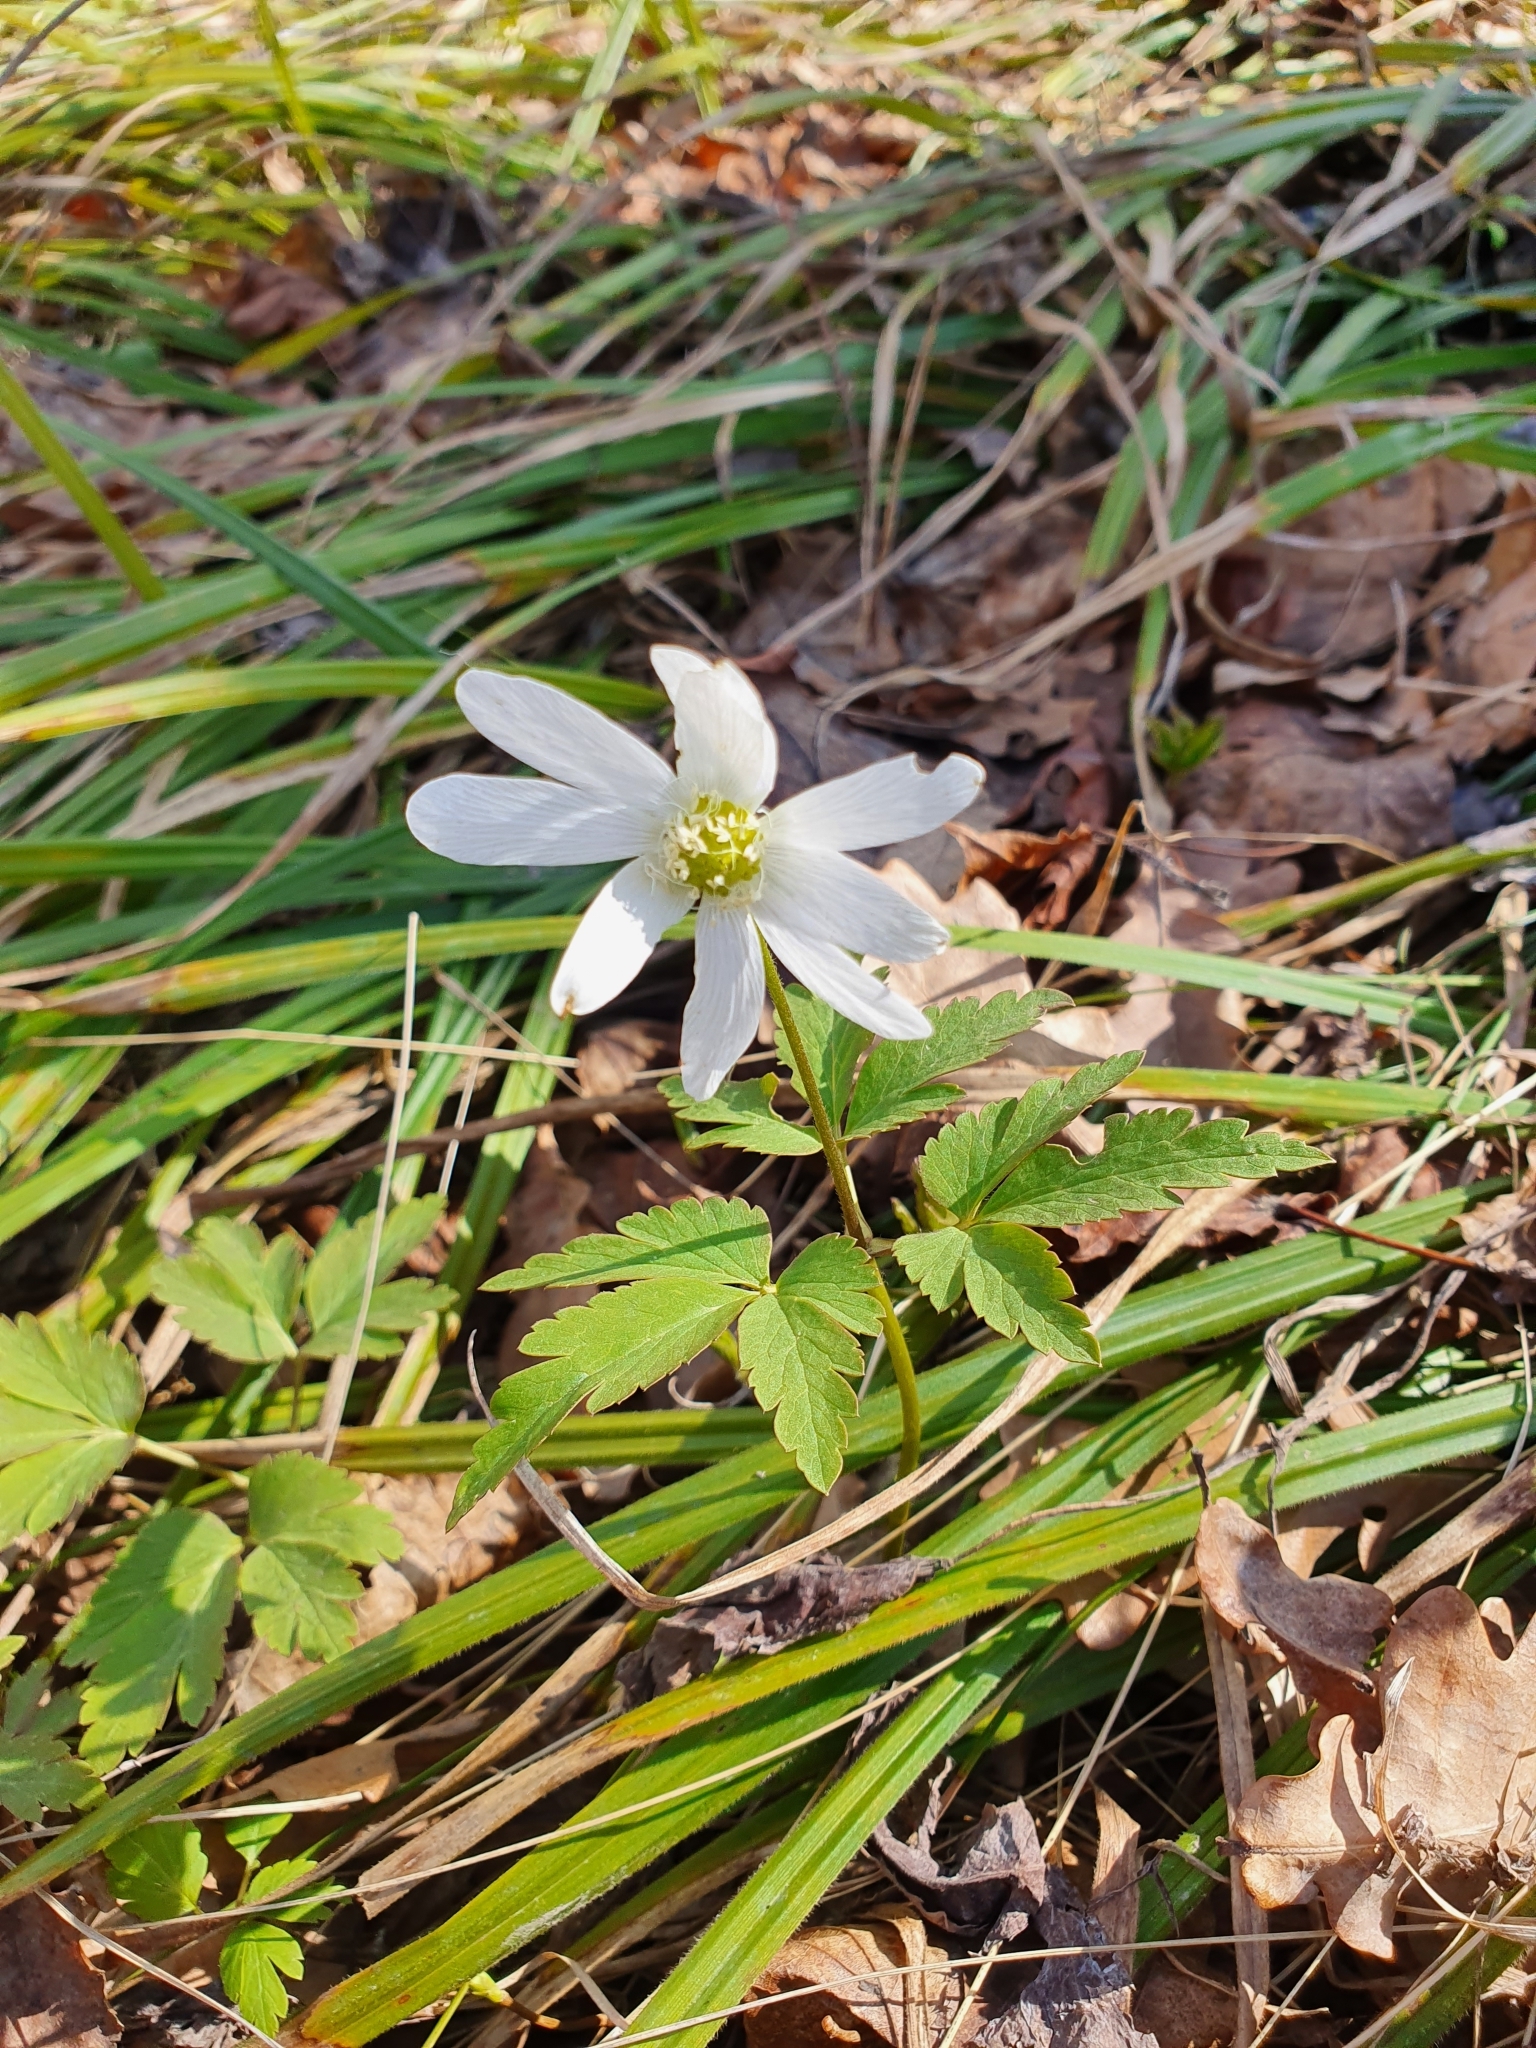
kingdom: Plantae
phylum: Tracheophyta
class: Magnoliopsida
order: Ranunculales
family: Ranunculaceae
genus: Anemone
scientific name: Anemone altaica
